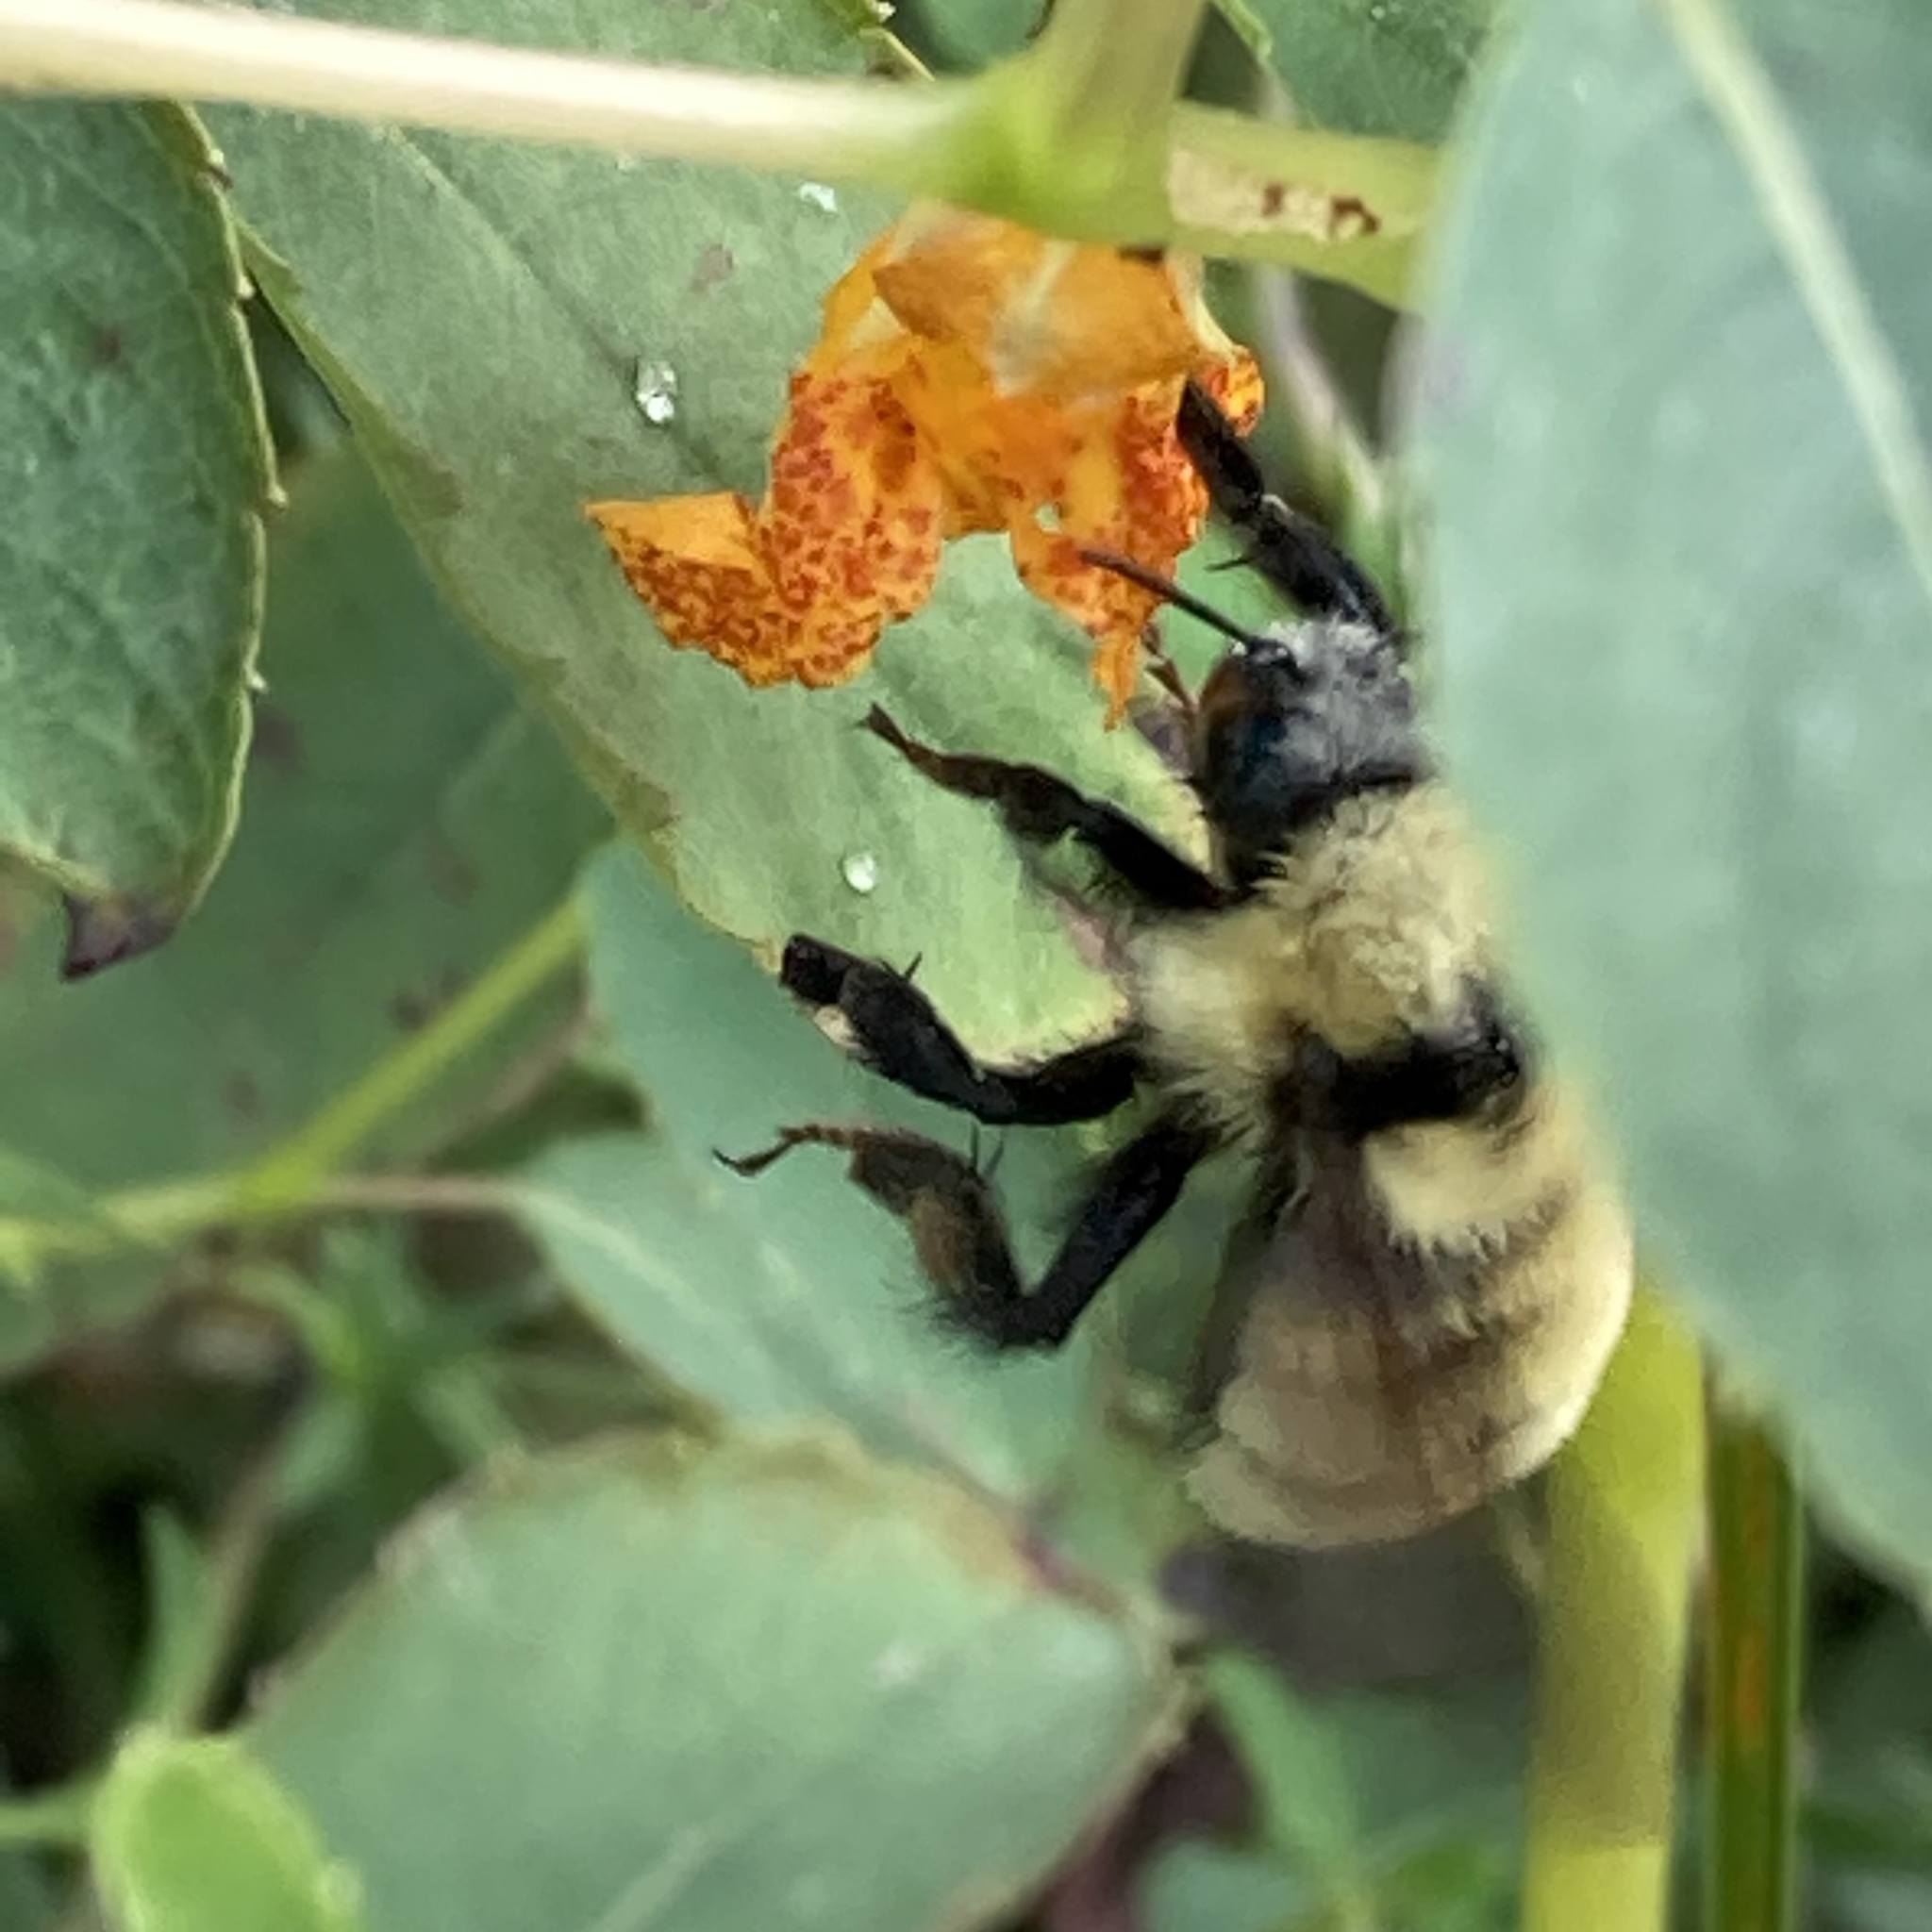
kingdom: Animalia
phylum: Arthropoda
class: Insecta
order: Hymenoptera
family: Apidae
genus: Bombus
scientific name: Bombus fervidus
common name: Yellow bumble bee
